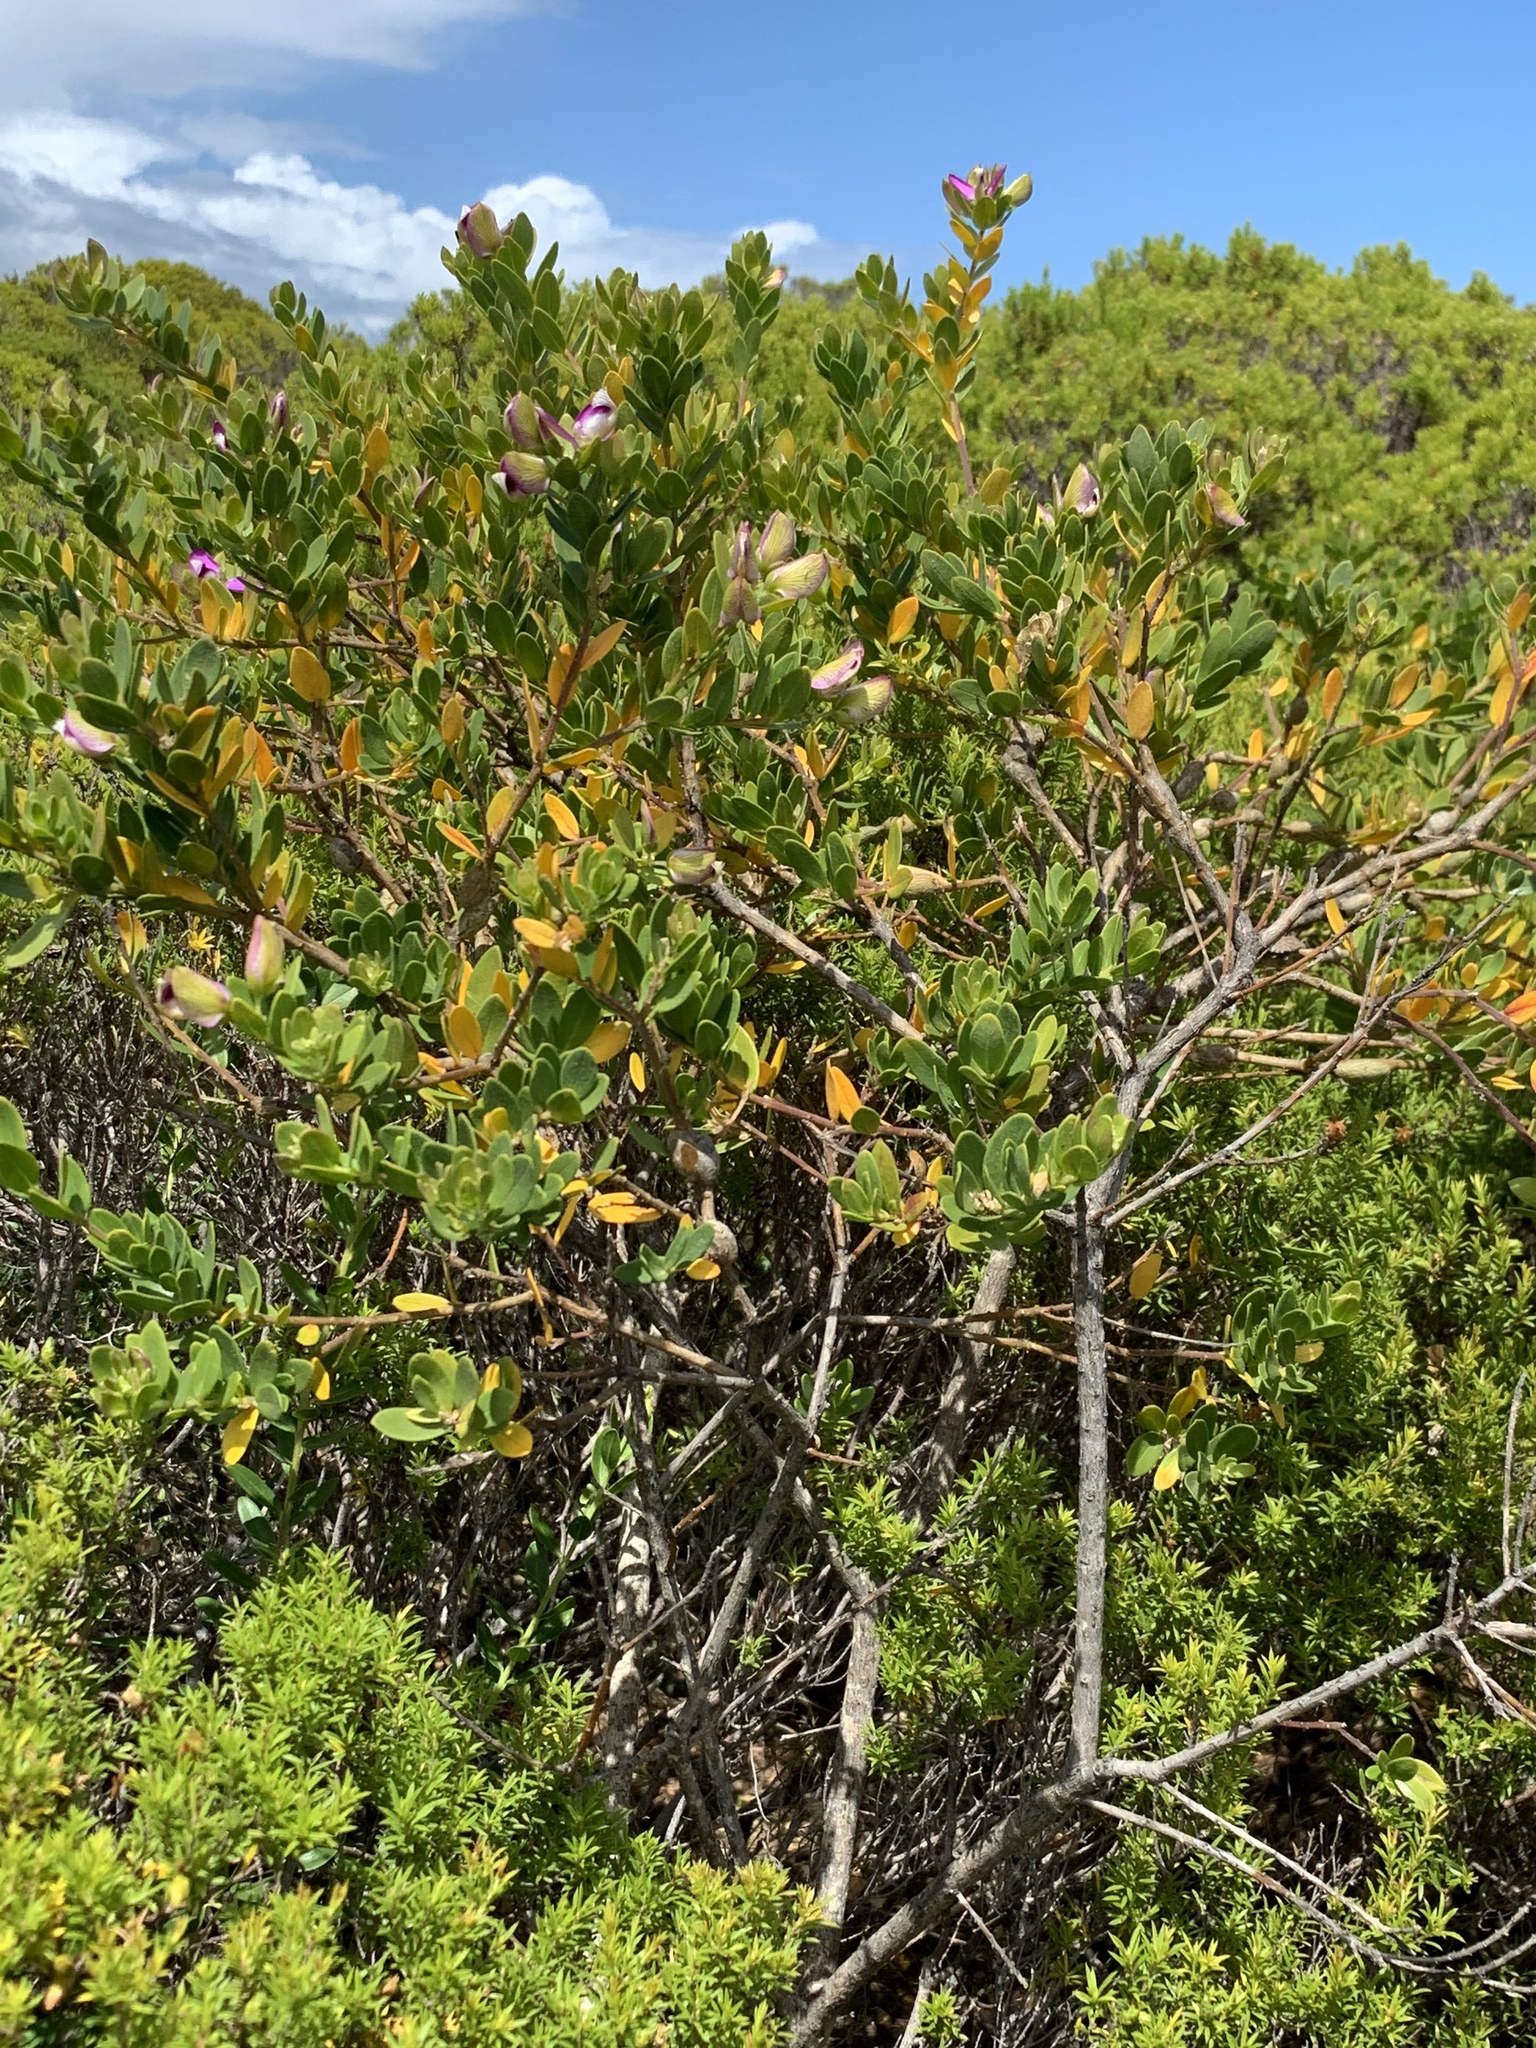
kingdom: Plantae
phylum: Tracheophyta
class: Magnoliopsida
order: Fabales
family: Polygalaceae
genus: Polygala
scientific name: Polygala myrtifolia
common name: Myrtle-leaf milkwort
